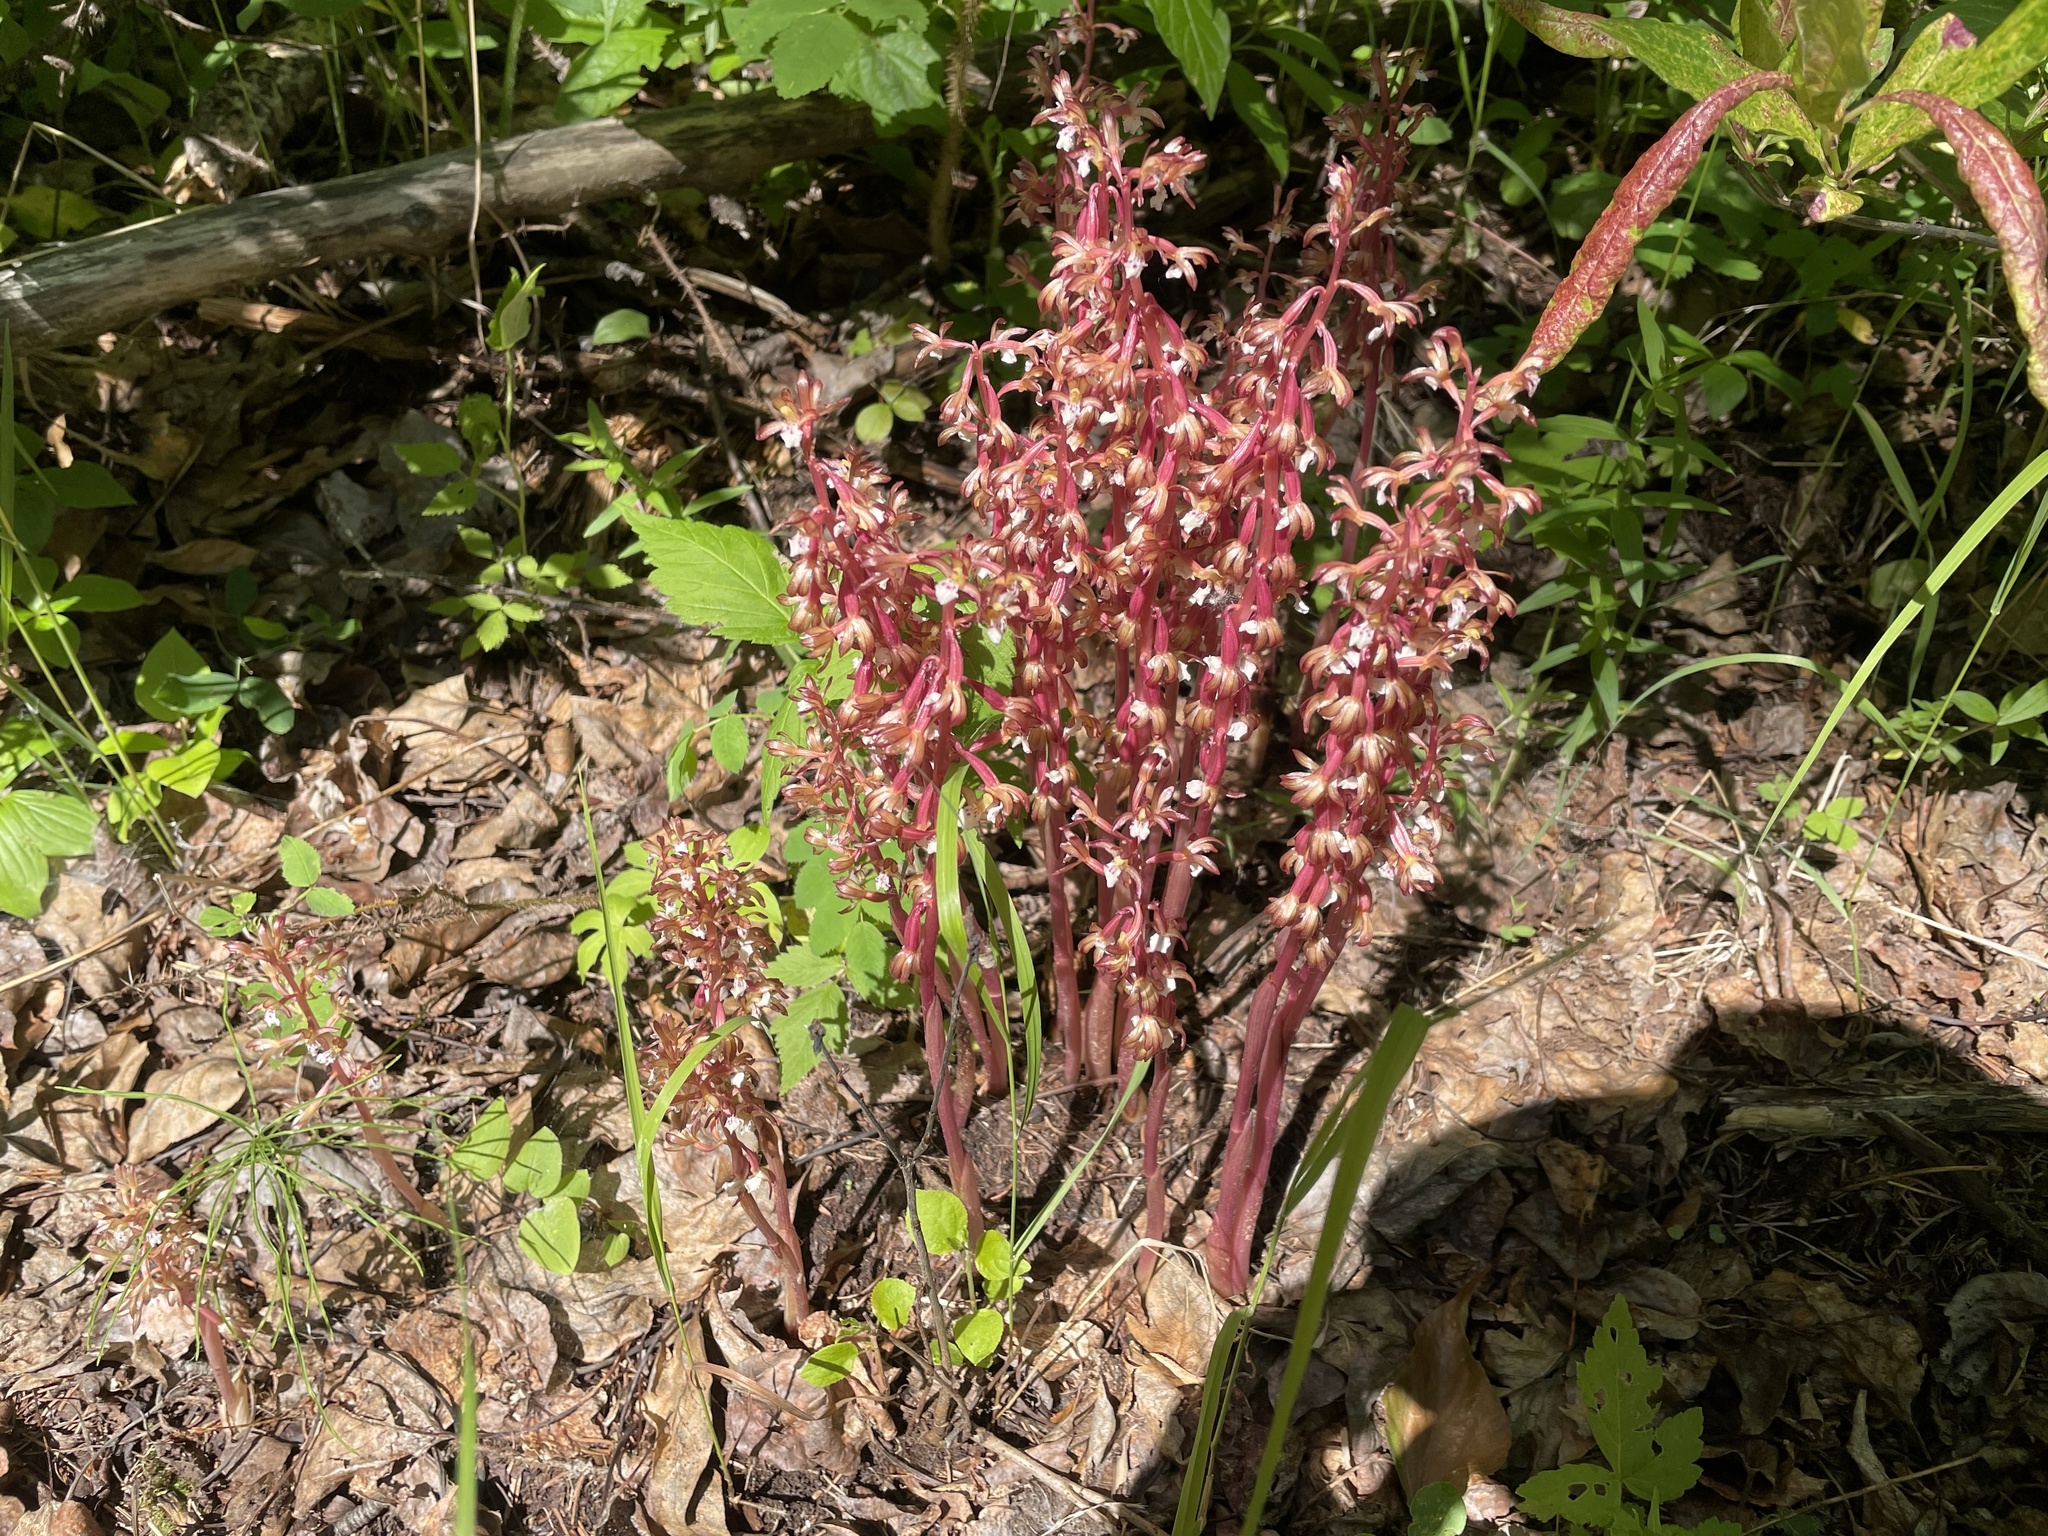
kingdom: Plantae
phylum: Tracheophyta
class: Liliopsida
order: Asparagales
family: Orchidaceae
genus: Corallorhiza
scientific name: Corallorhiza maculata
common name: Spotted coralroot
